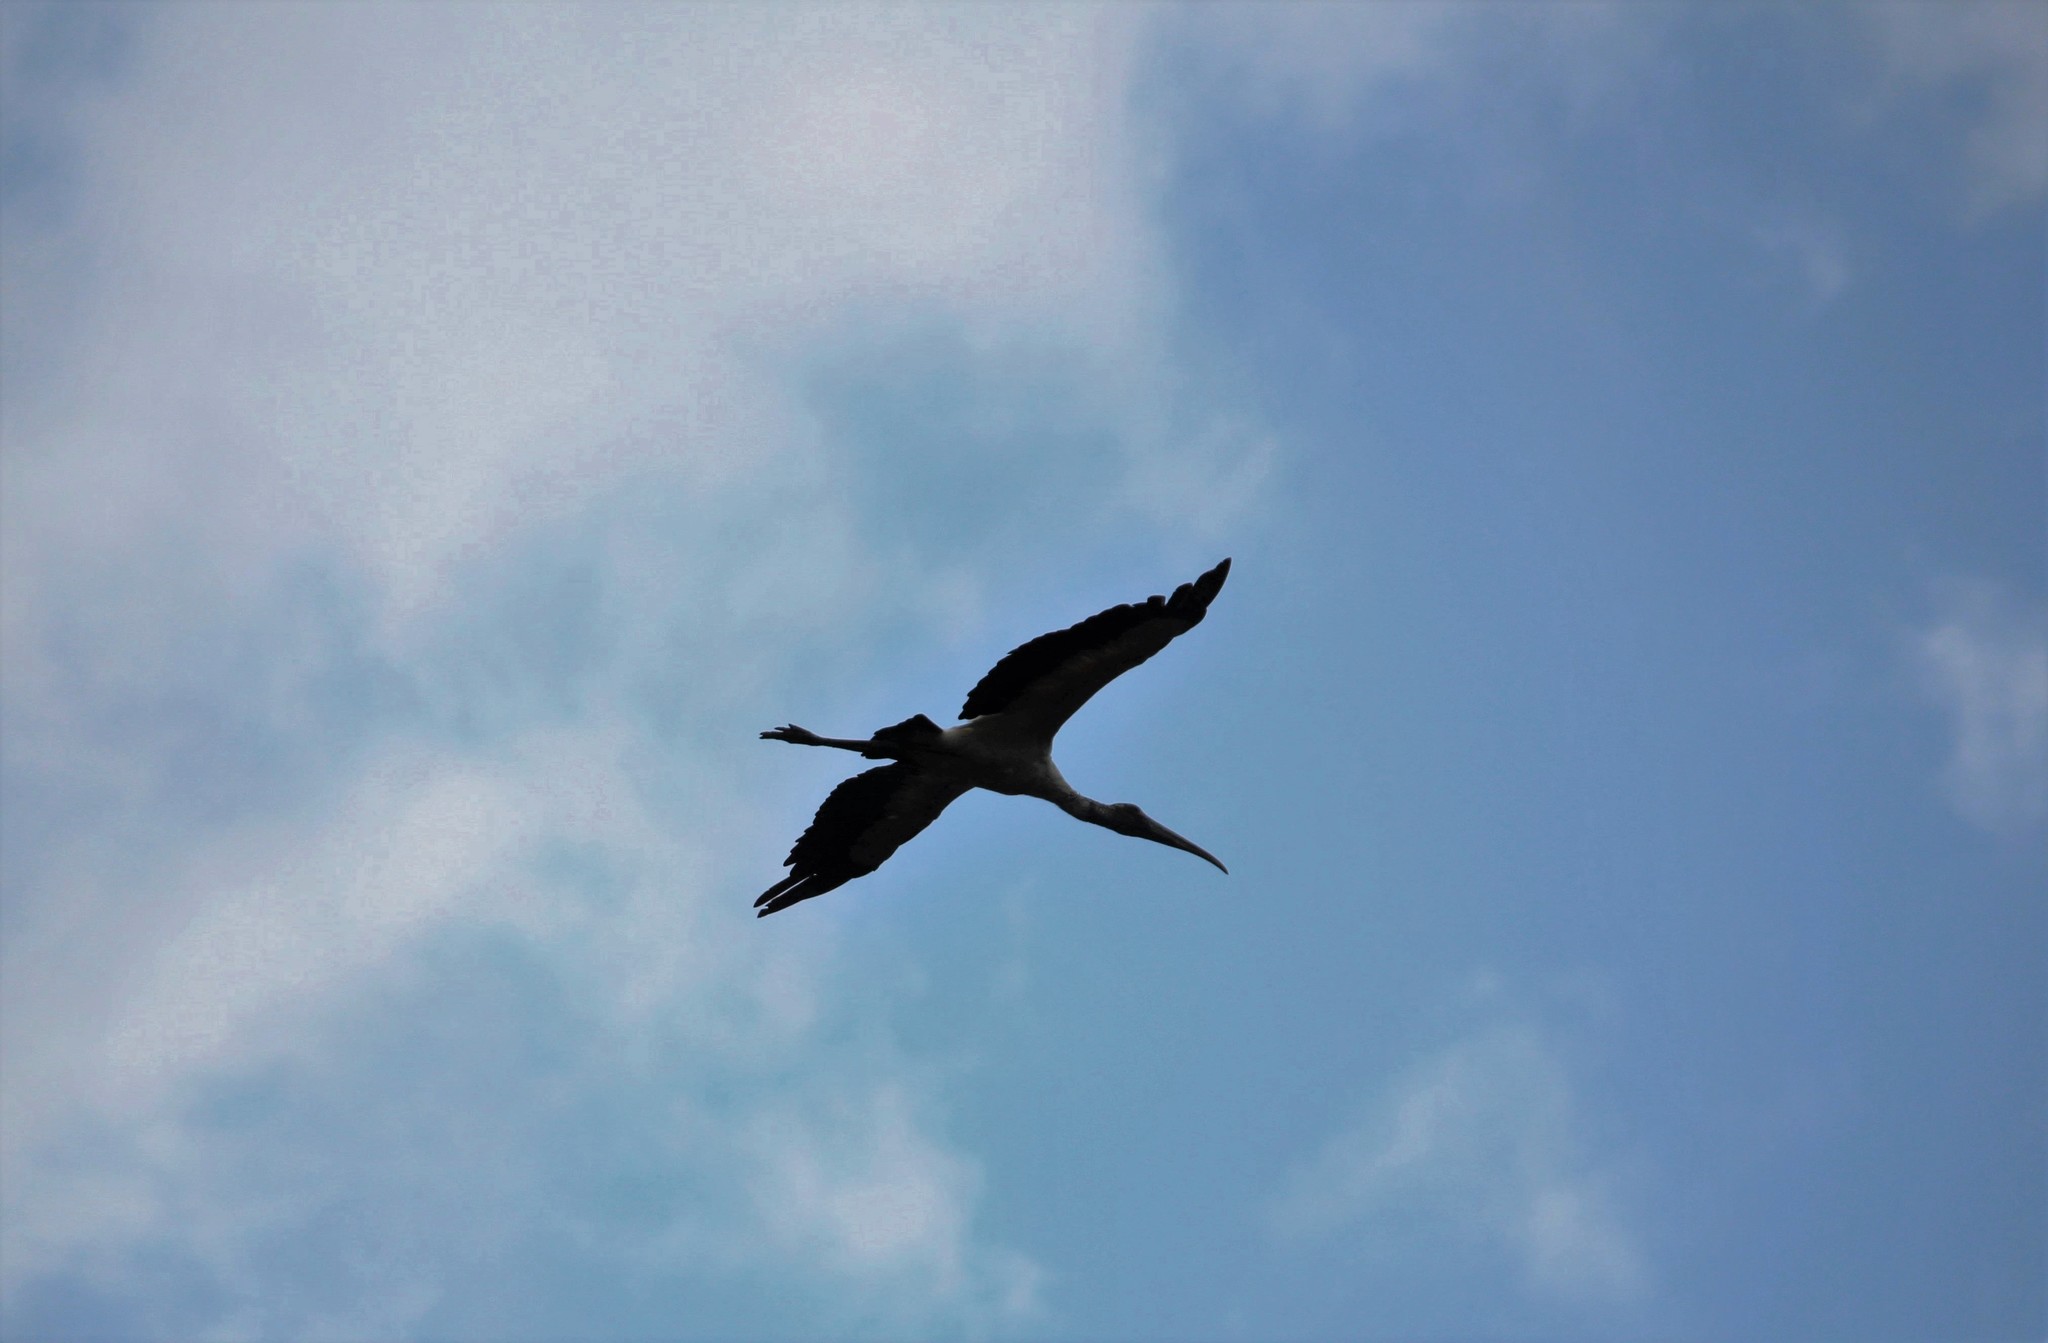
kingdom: Animalia
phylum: Chordata
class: Aves
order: Ciconiiformes
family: Ciconiidae
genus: Mycteria
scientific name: Mycteria americana
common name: Wood stork
